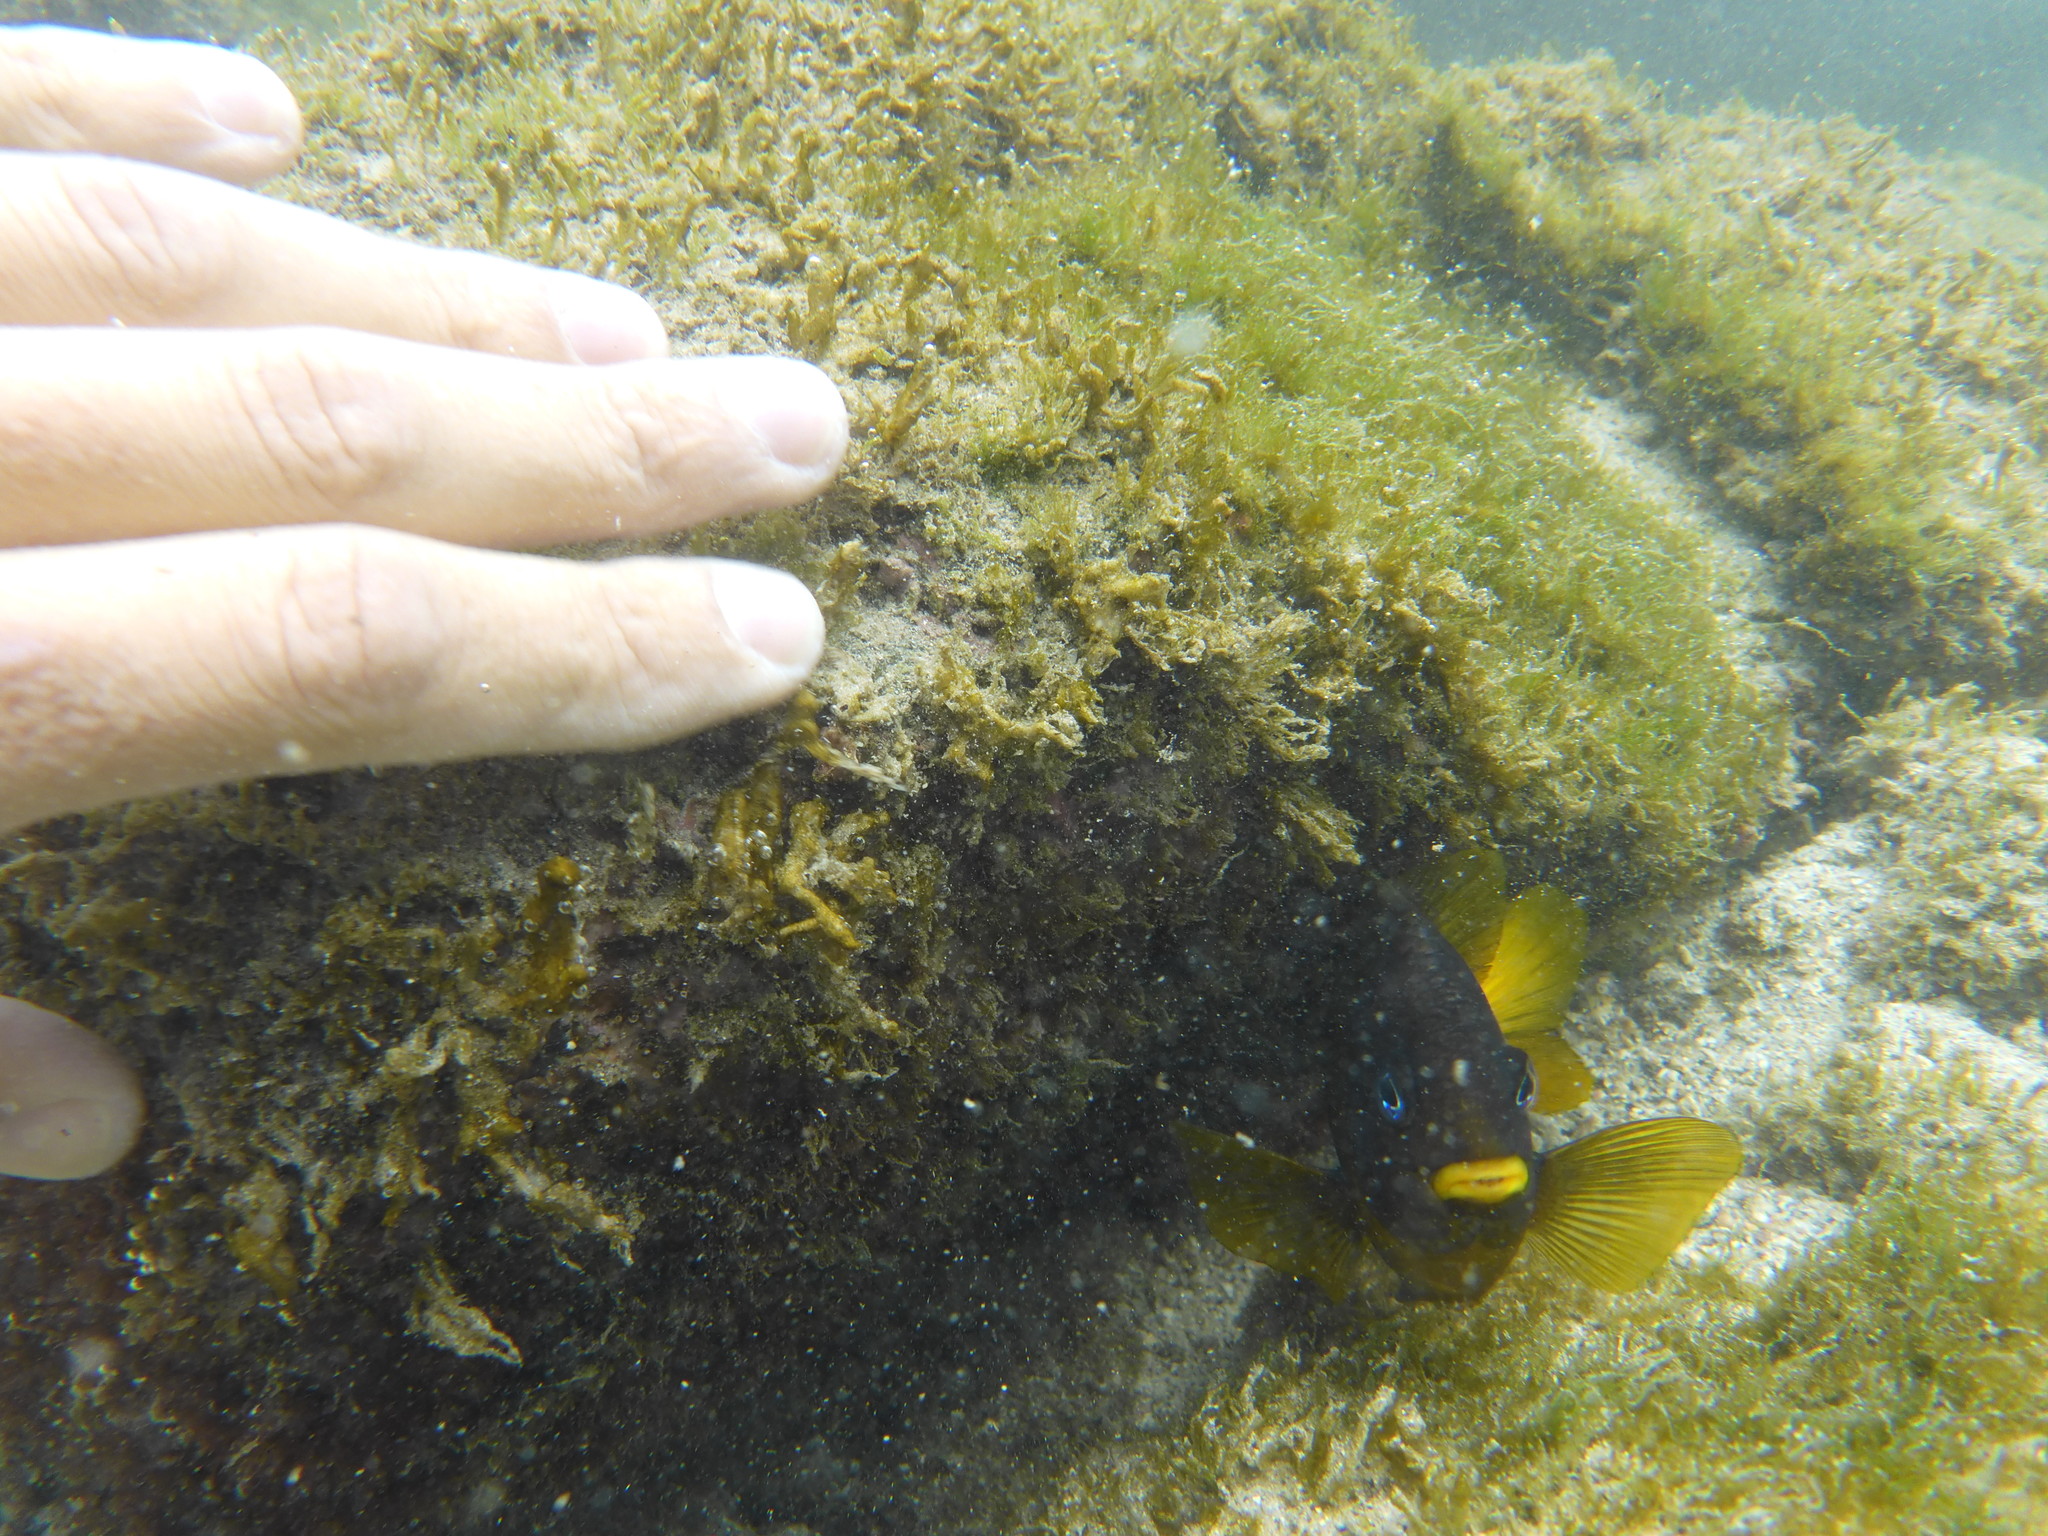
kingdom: Animalia
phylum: Chordata
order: Perciformes
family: Pomacentridae
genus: Stegastes
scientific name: Stegastes arcifrons
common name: Galapagos gregory
